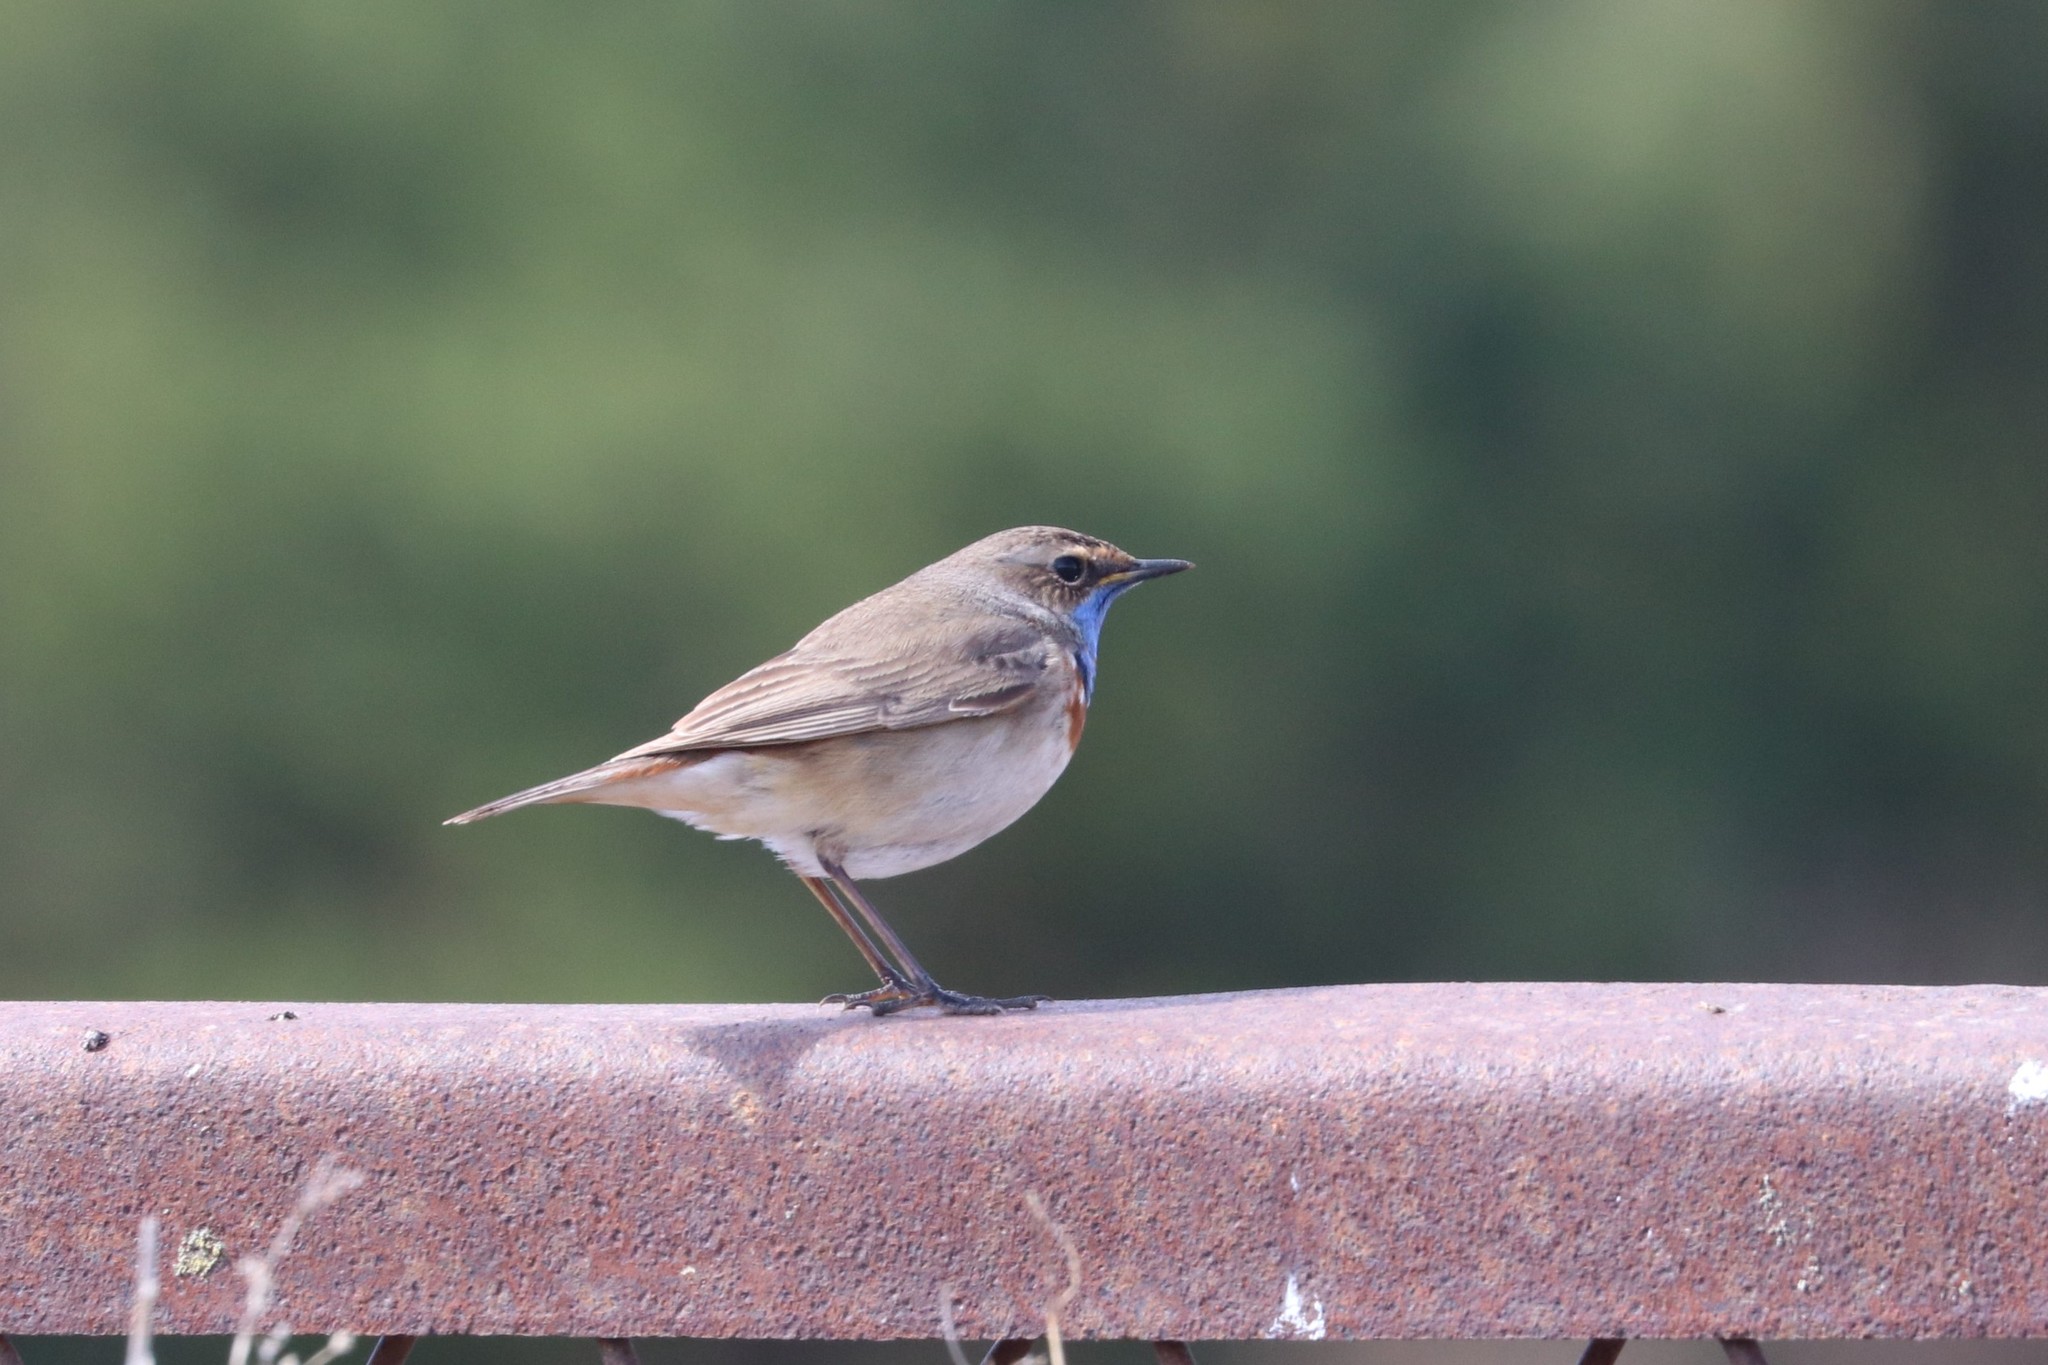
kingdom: Animalia
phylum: Chordata
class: Aves
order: Passeriformes
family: Muscicapidae
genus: Luscinia
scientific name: Luscinia svecica
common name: Bluethroat
